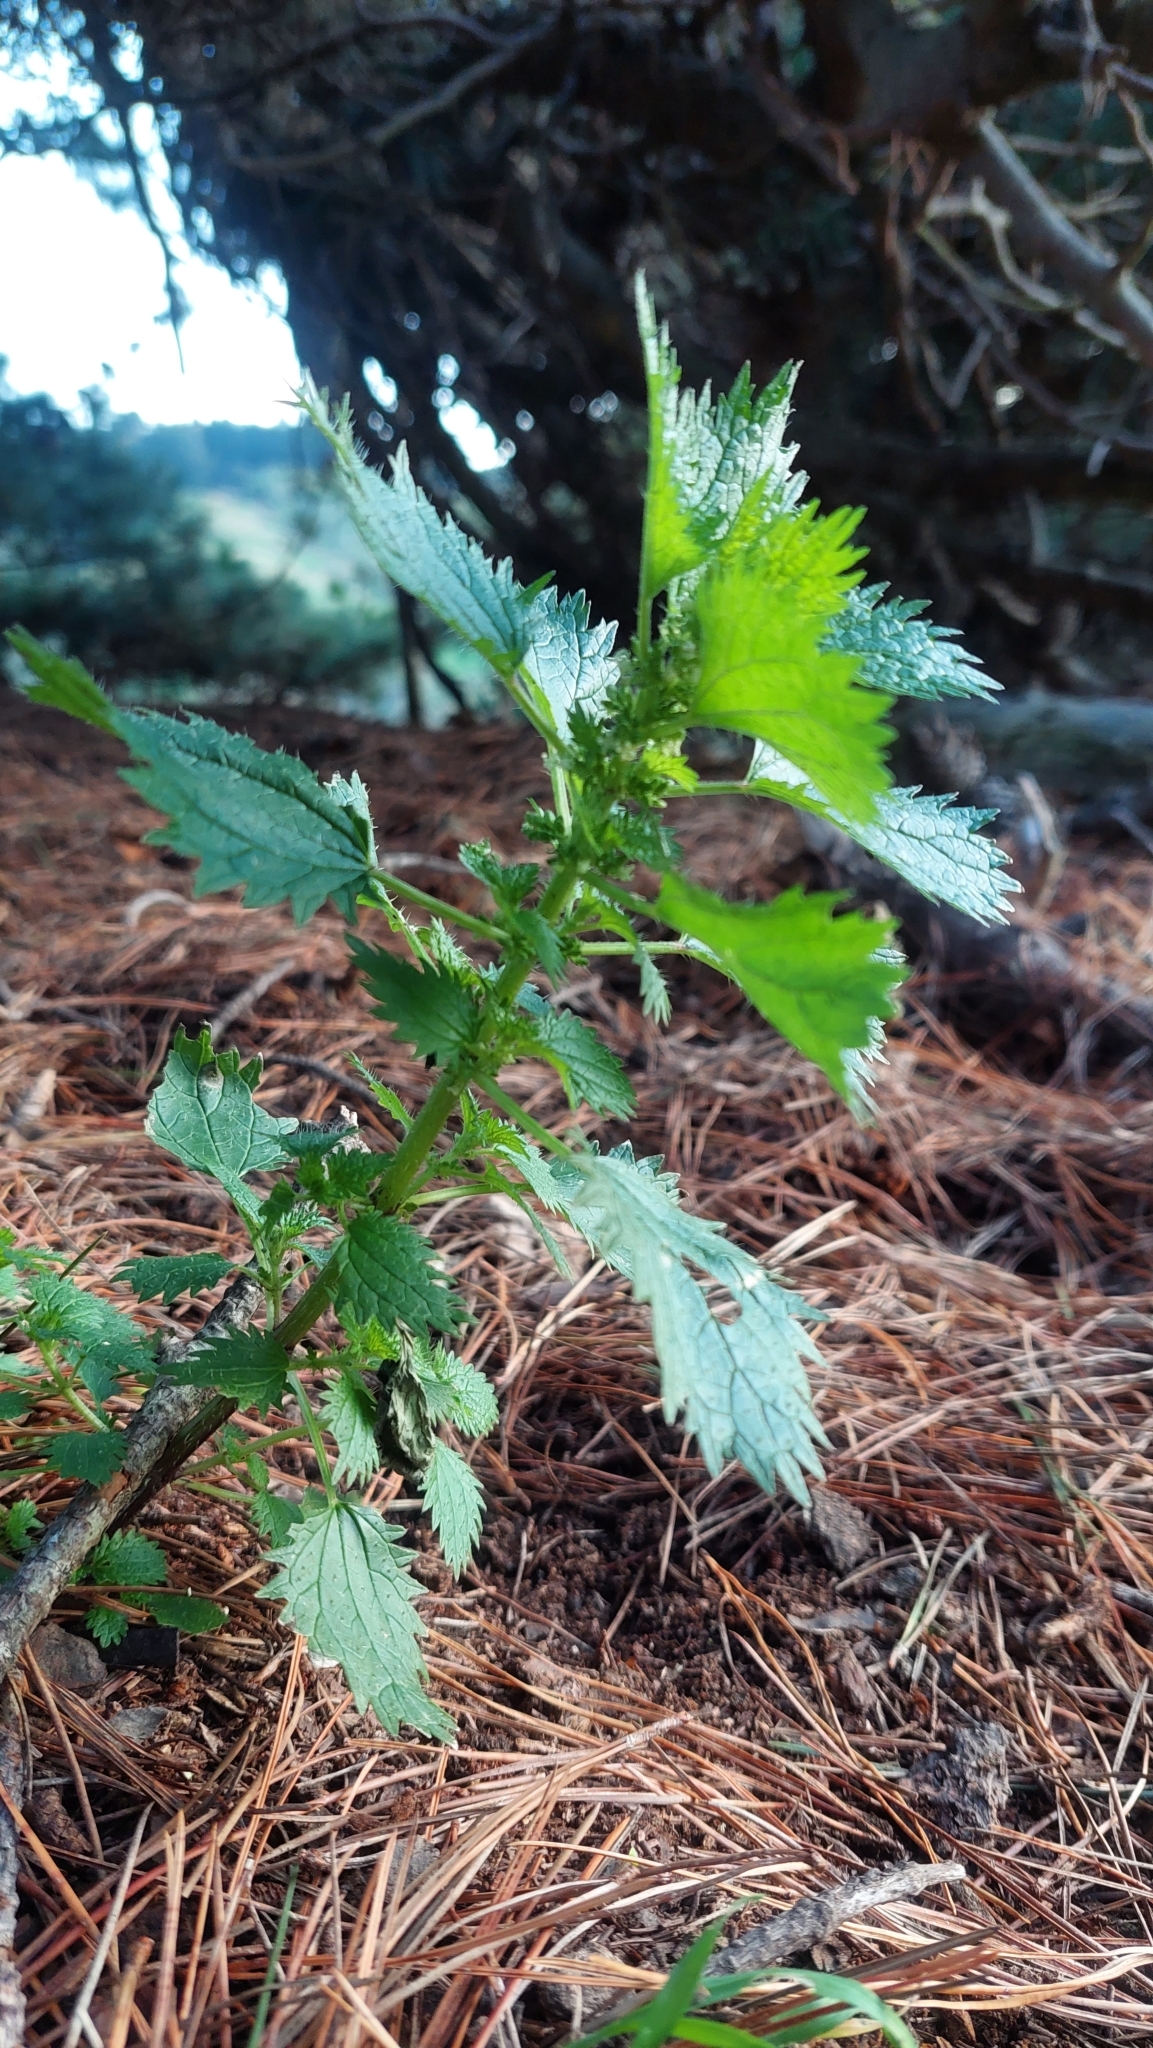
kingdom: Plantae
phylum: Tracheophyta
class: Magnoliopsida
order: Rosales
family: Urticaceae
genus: Urtica
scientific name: Urtica urens
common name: Dwarf nettle
